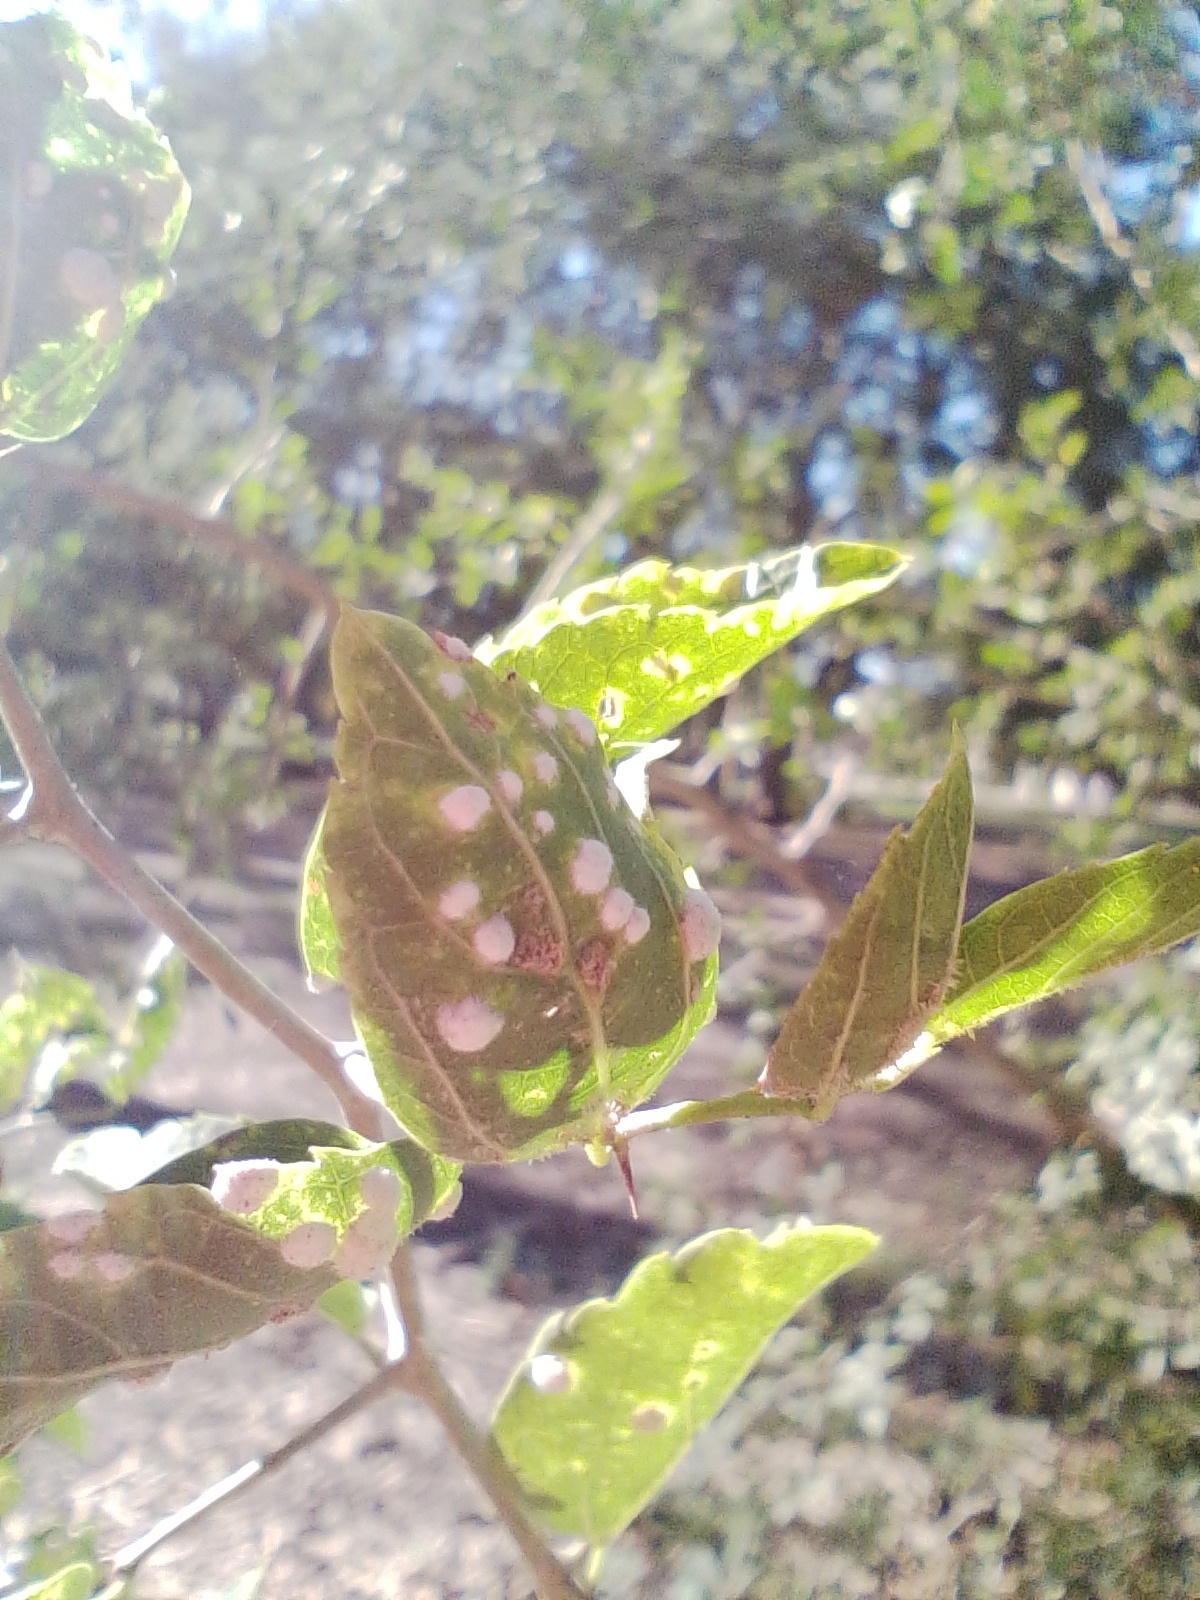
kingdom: Plantae
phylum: Tracheophyta
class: Magnoliopsida
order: Rosales
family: Cannabaceae
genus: Celtis
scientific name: Celtis tala
